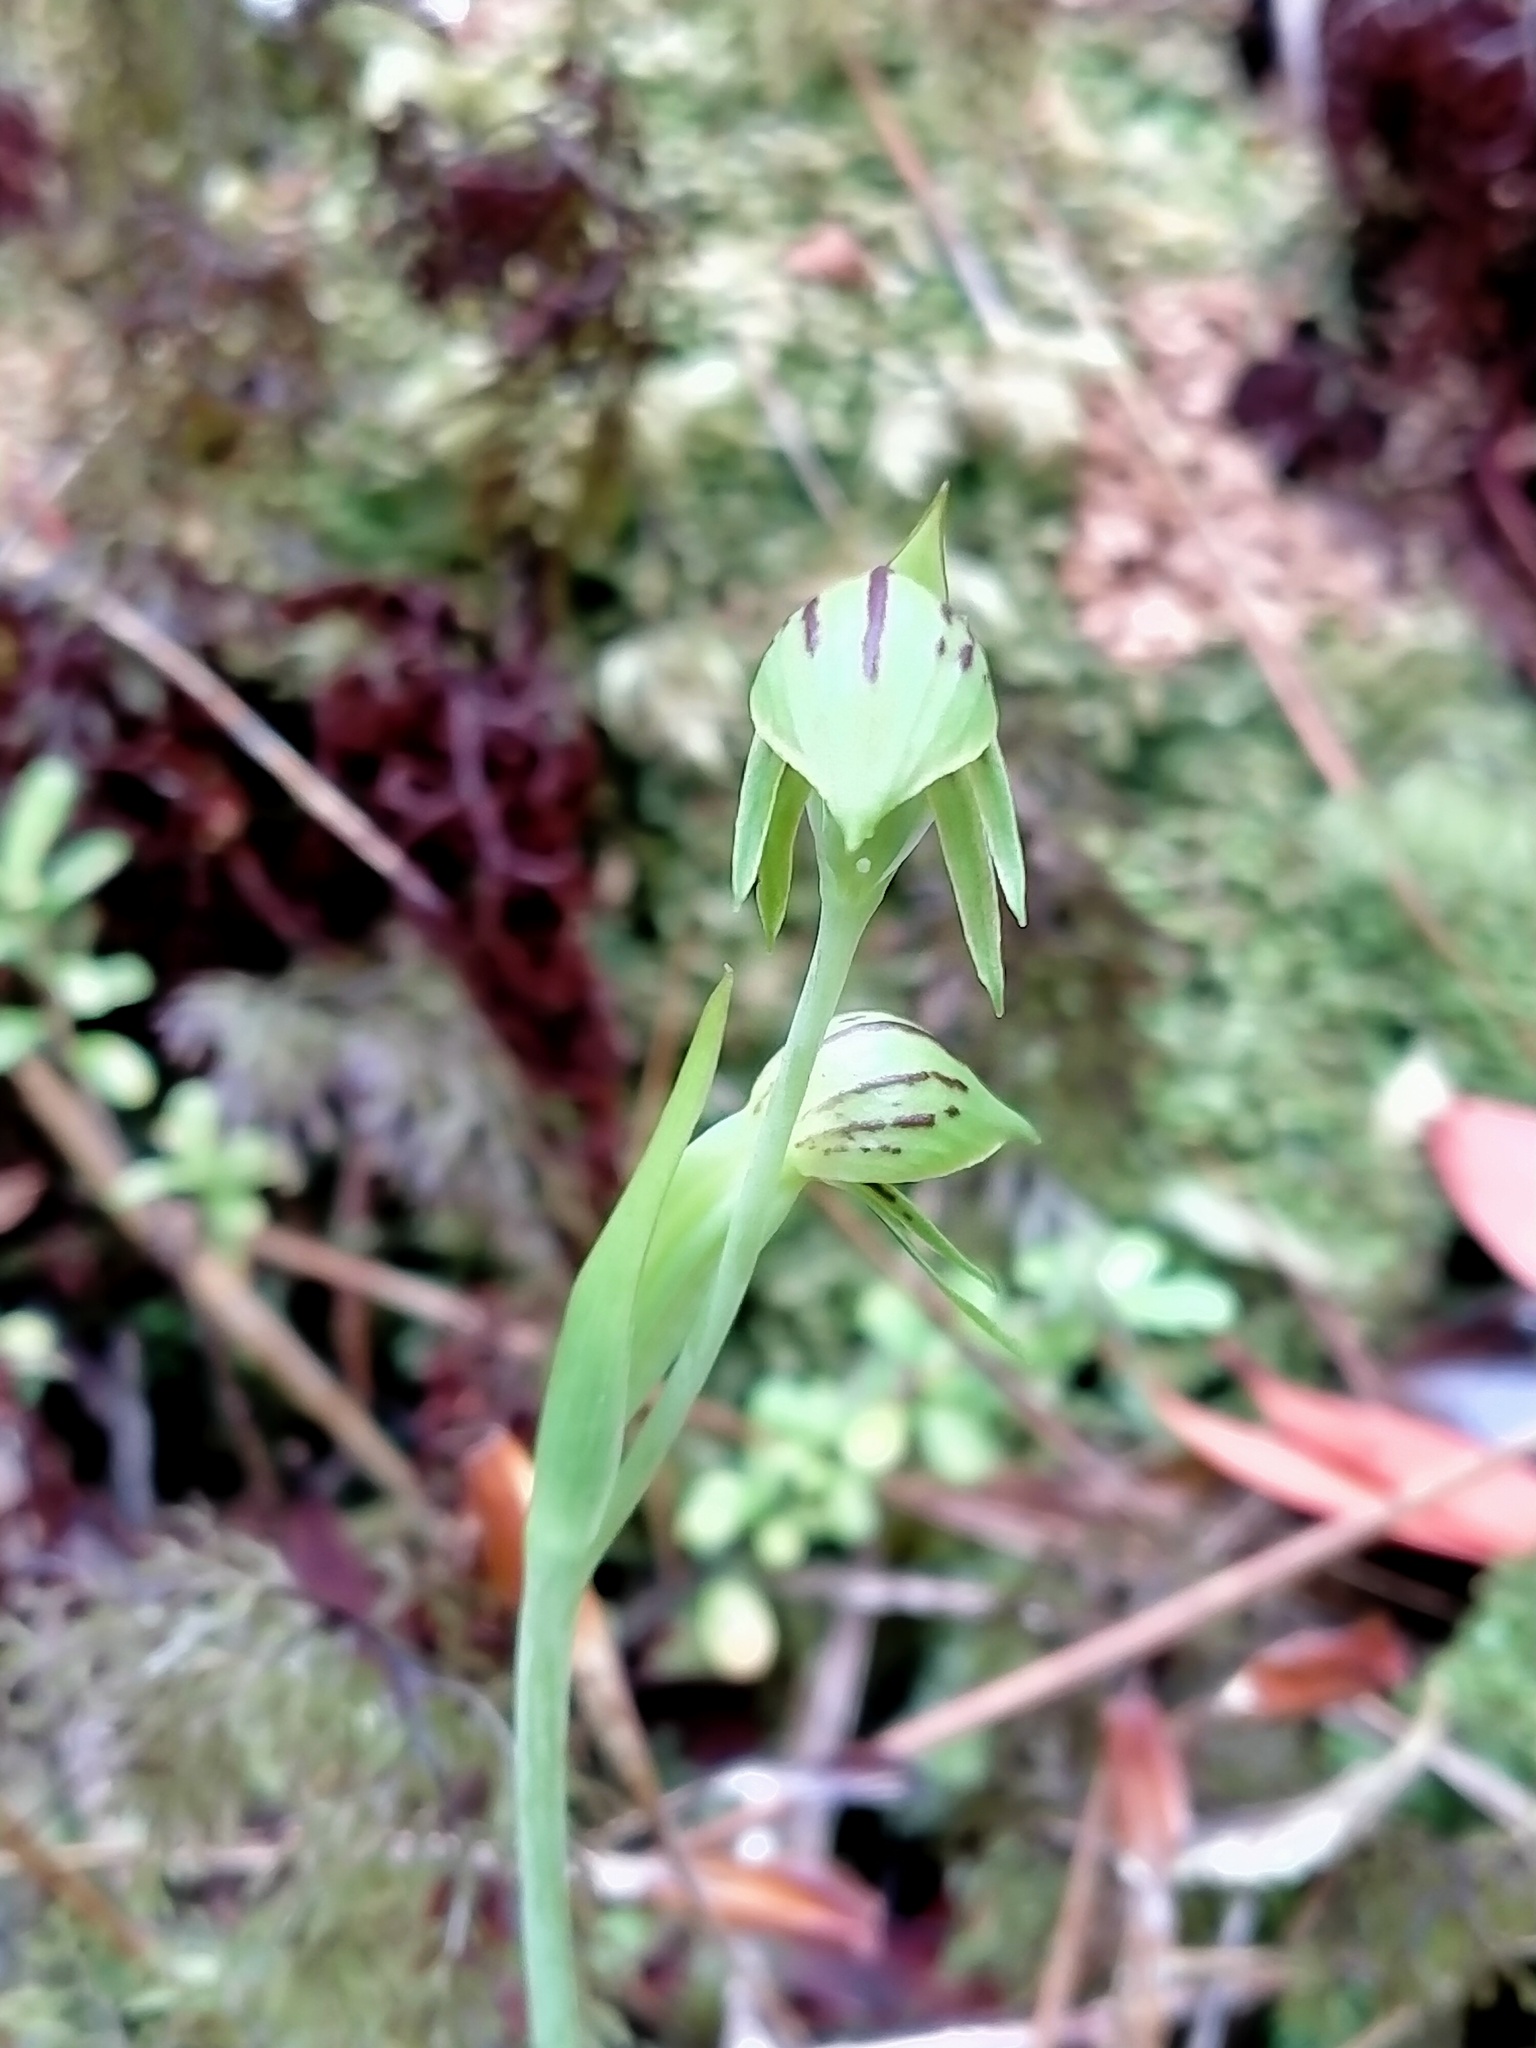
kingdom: Plantae
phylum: Tracheophyta
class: Liliopsida
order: Asparagales
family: Orchidaceae
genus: Waireia
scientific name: Waireia stenopetala
